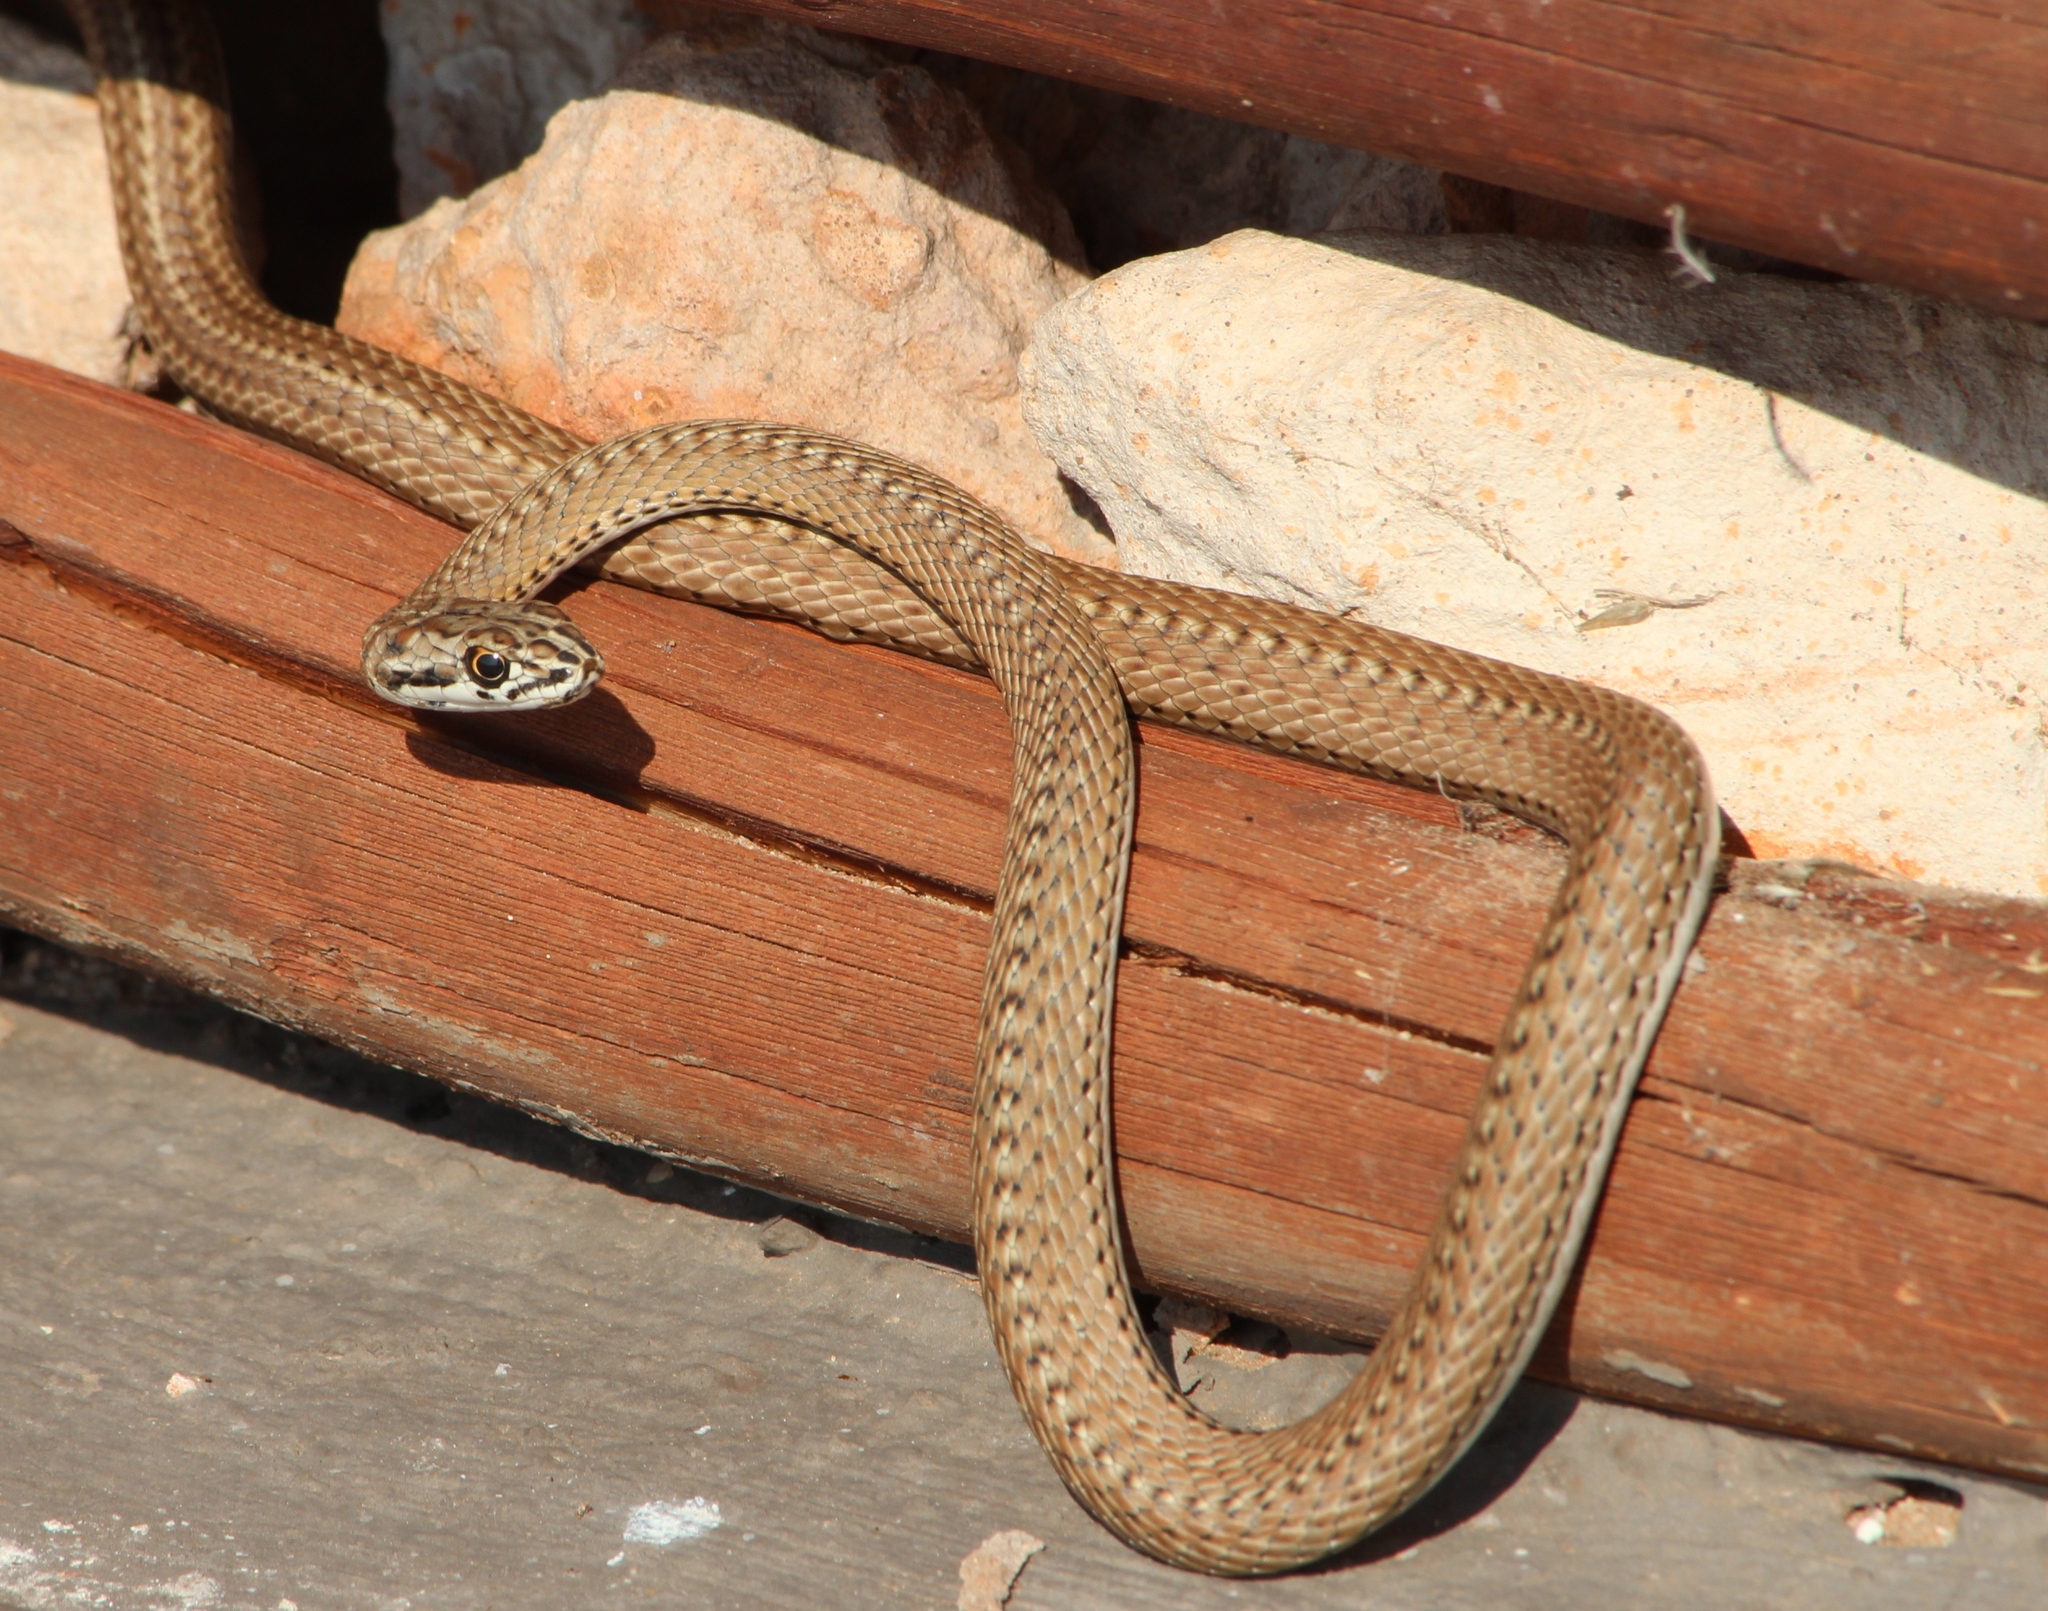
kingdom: Animalia
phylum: Chordata
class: Squamata
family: Psammophiidae
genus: Psammophis
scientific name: Psammophis notostictus
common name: Karoo sand snake
